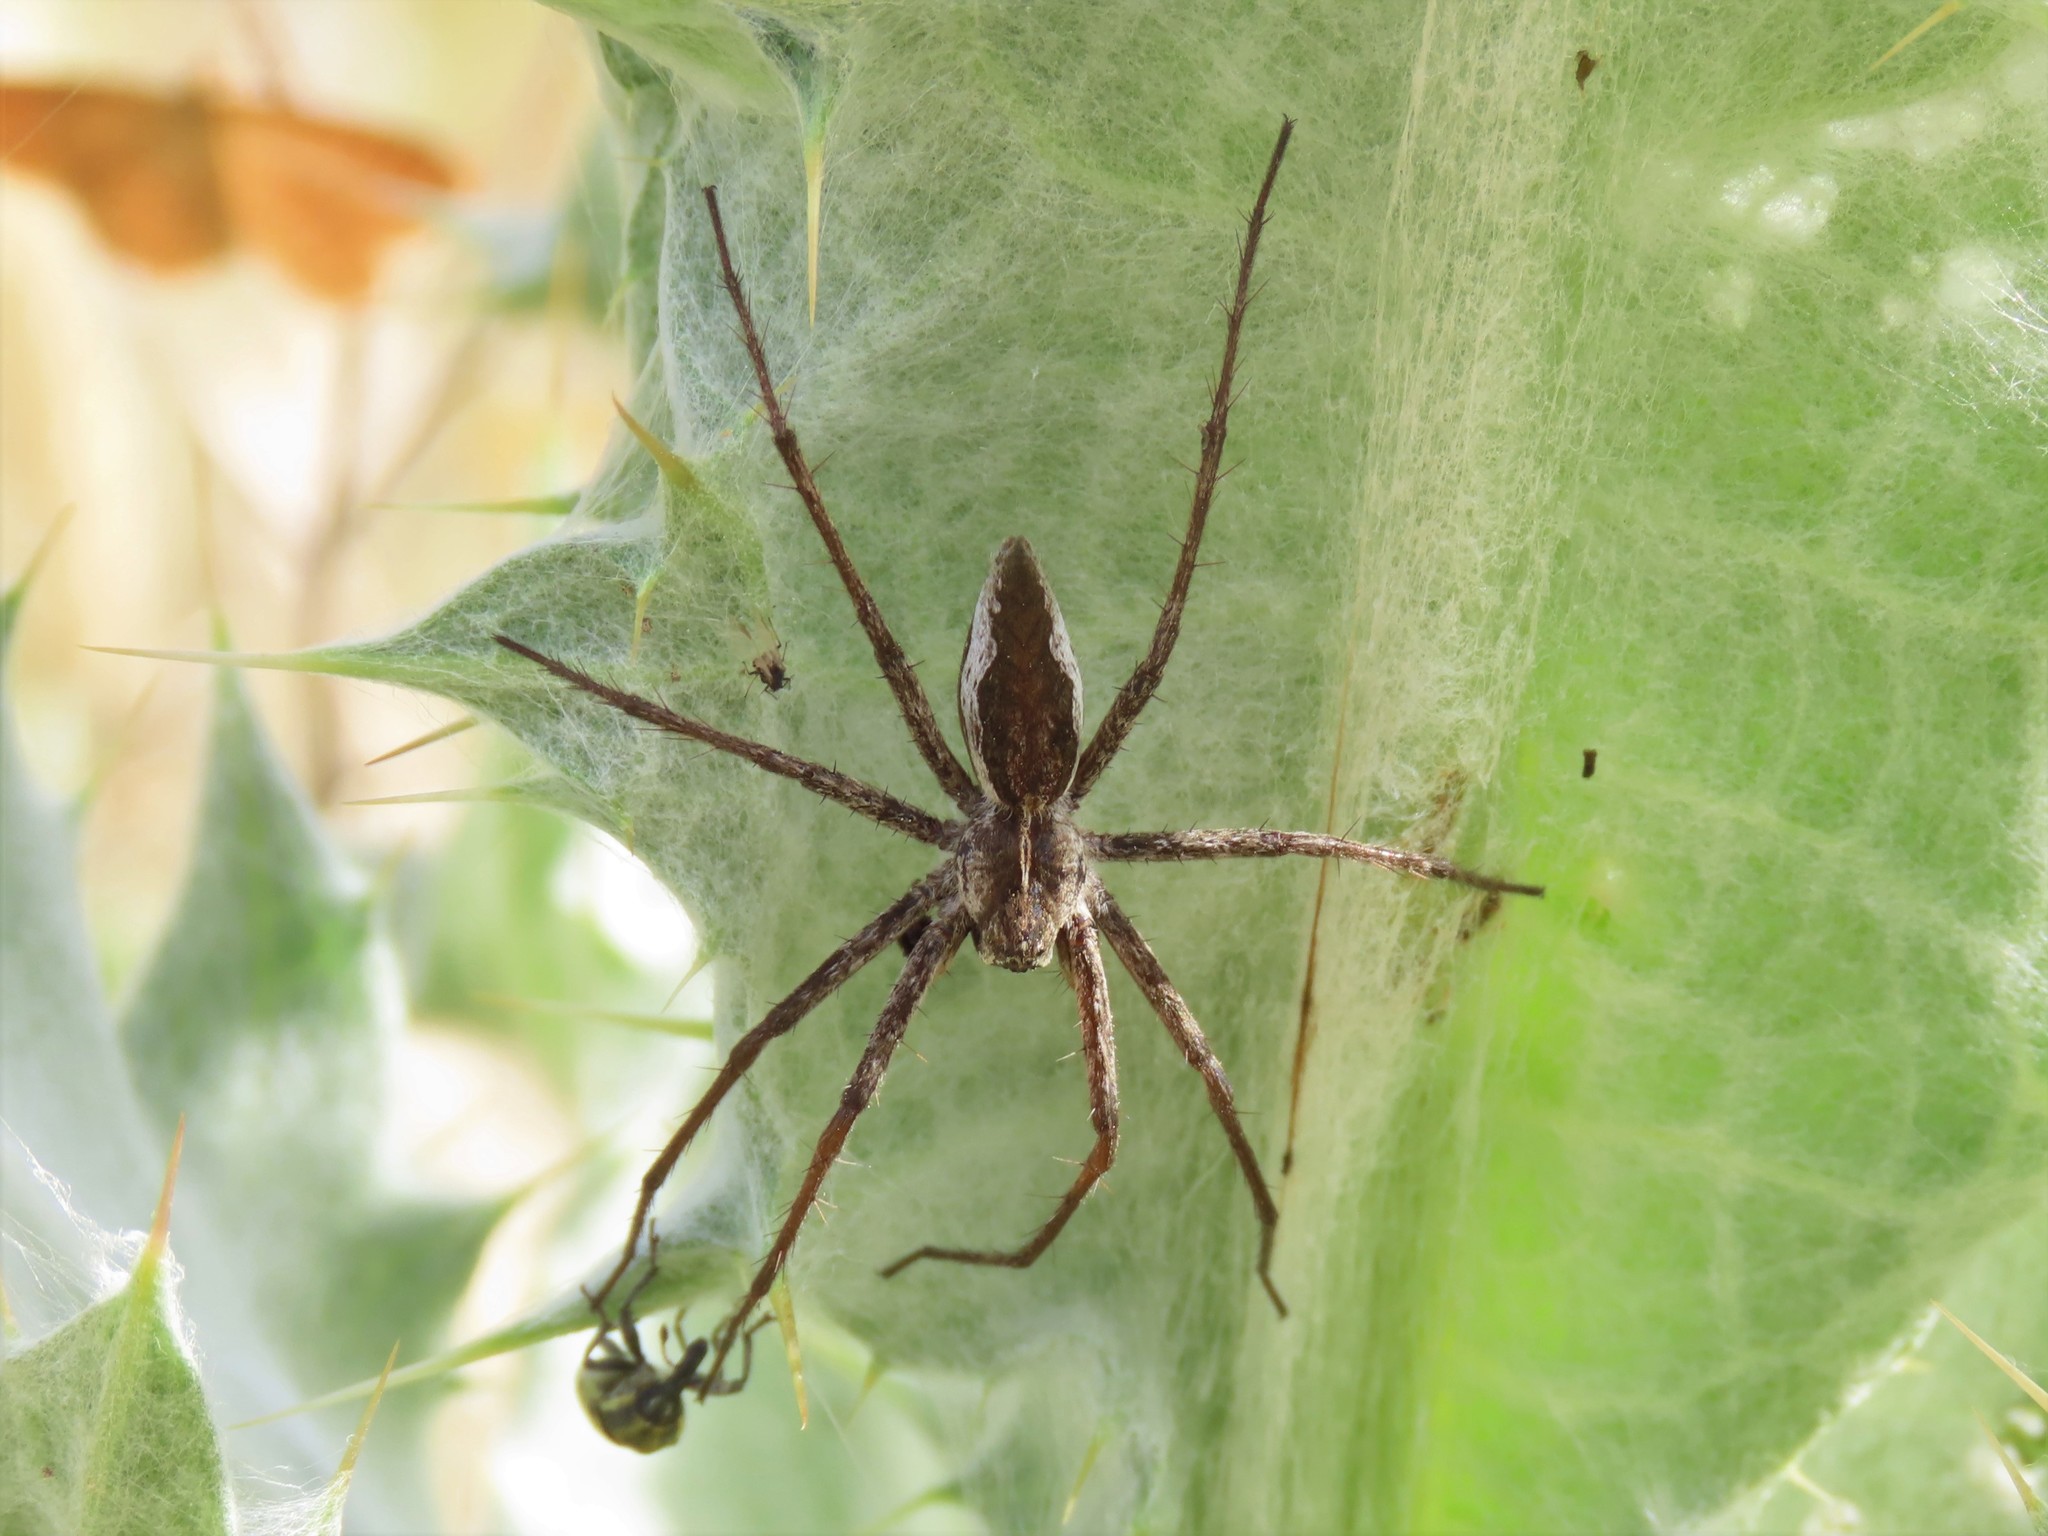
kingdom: Animalia
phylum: Arthropoda
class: Arachnida
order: Araneae
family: Pisauridae
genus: Pisaura
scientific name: Pisaura mirabilis
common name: Tent spider
